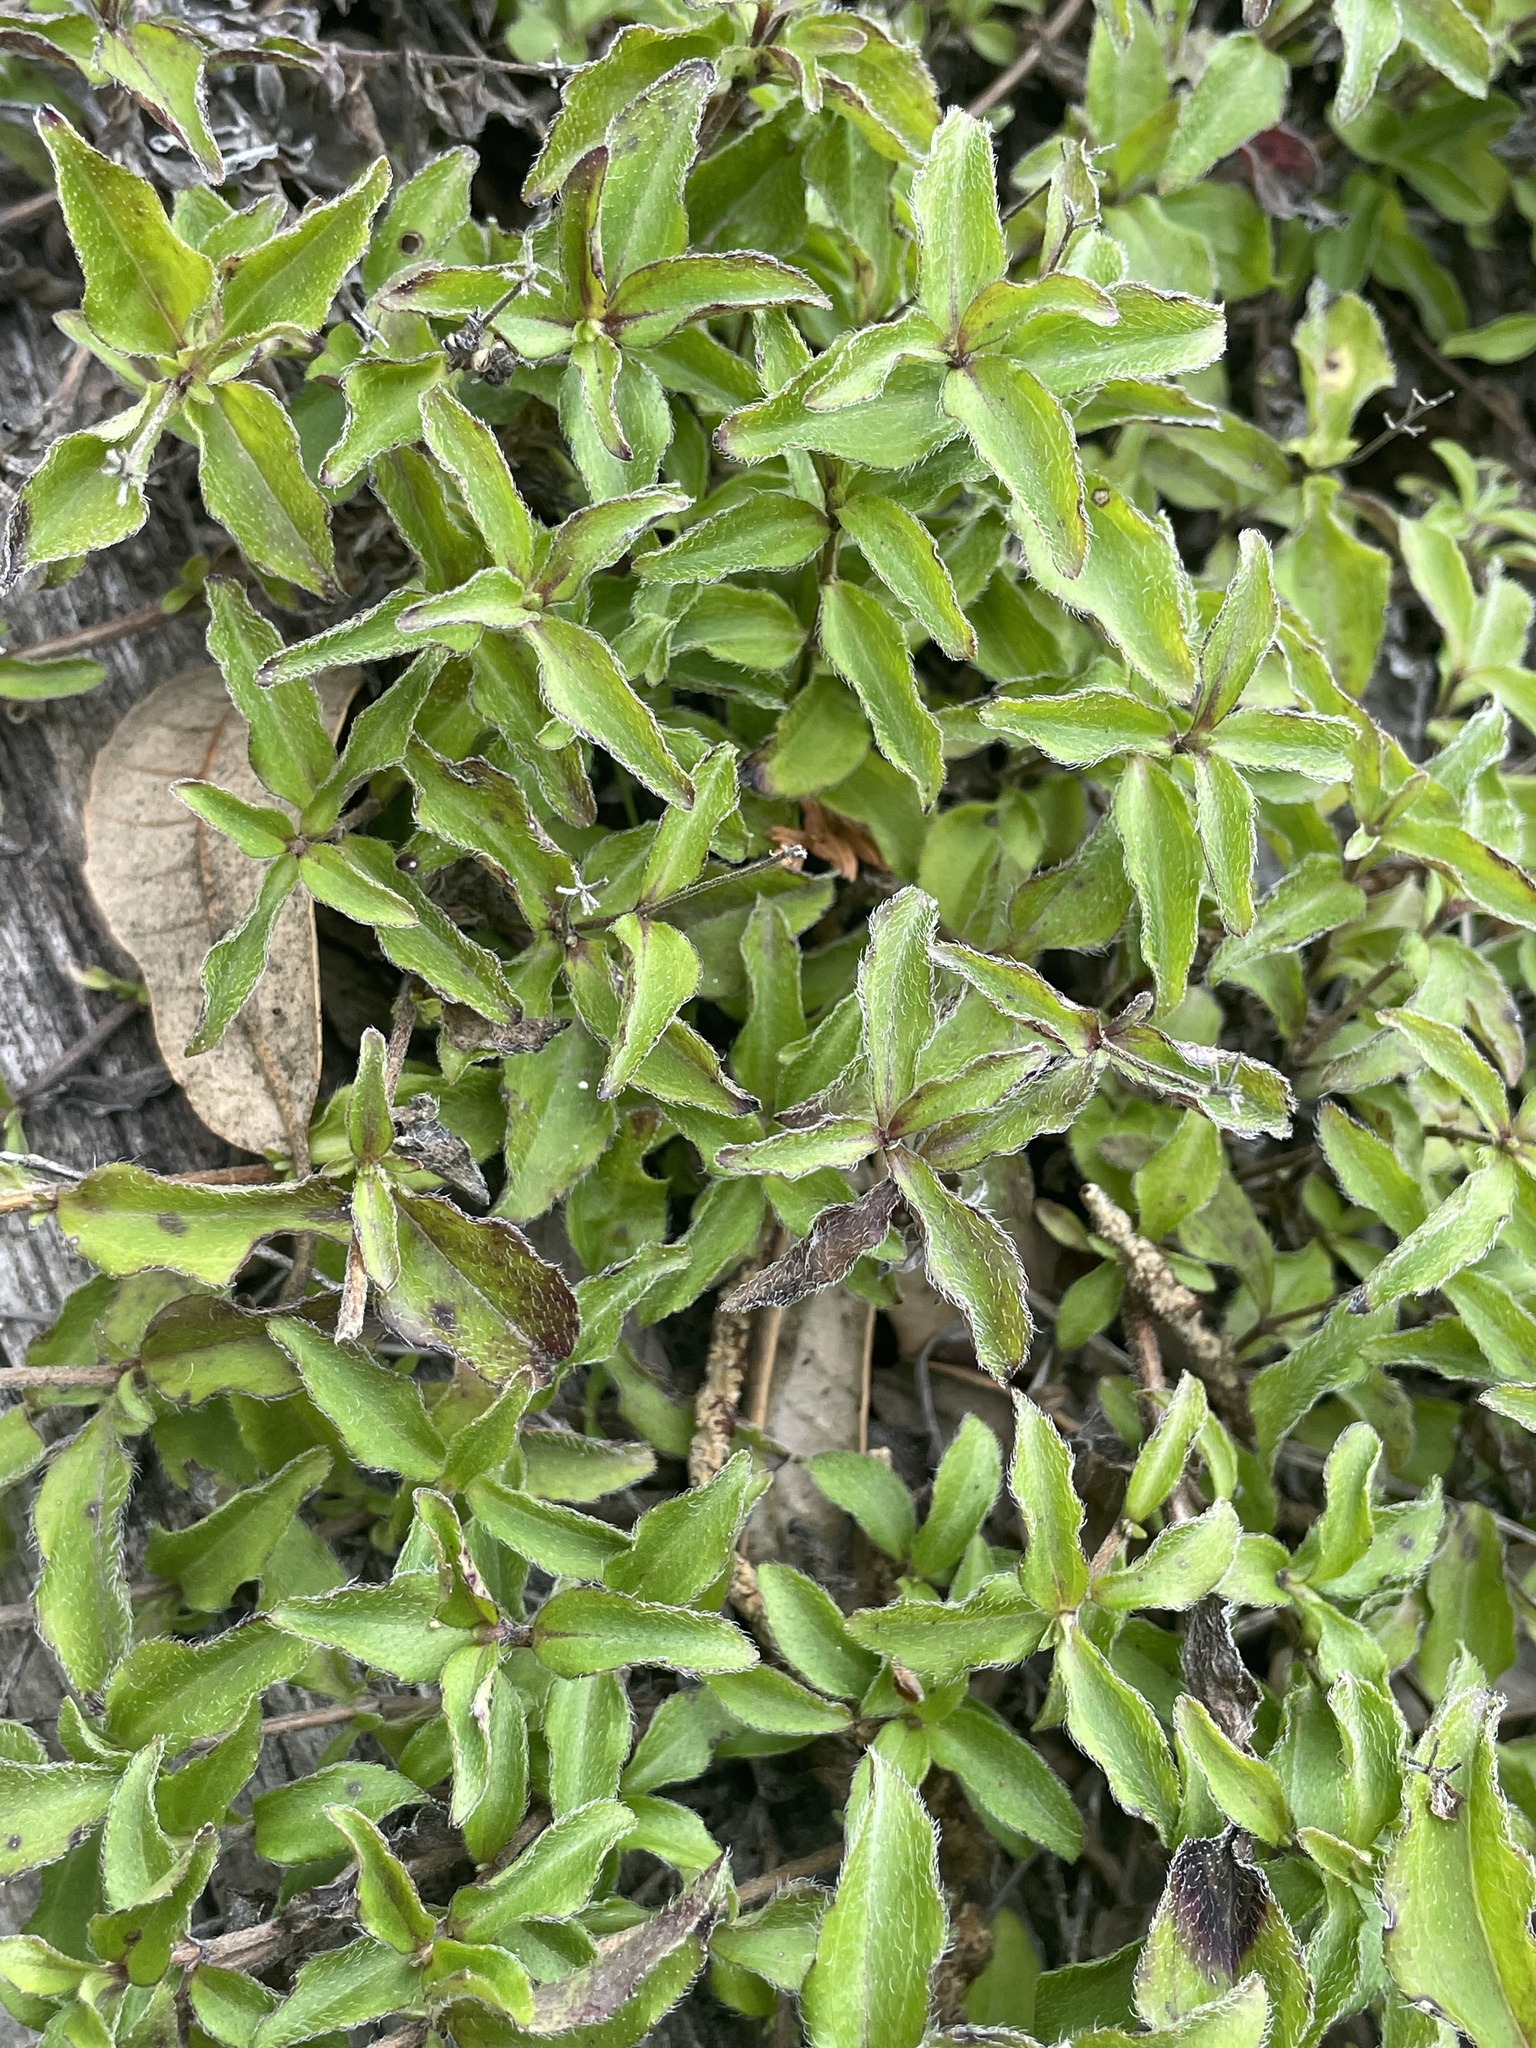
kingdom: Plantae
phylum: Tracheophyta
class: Magnoliopsida
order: Cornales
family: Hydrangeaceae
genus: Whipplea
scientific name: Whipplea modesta
